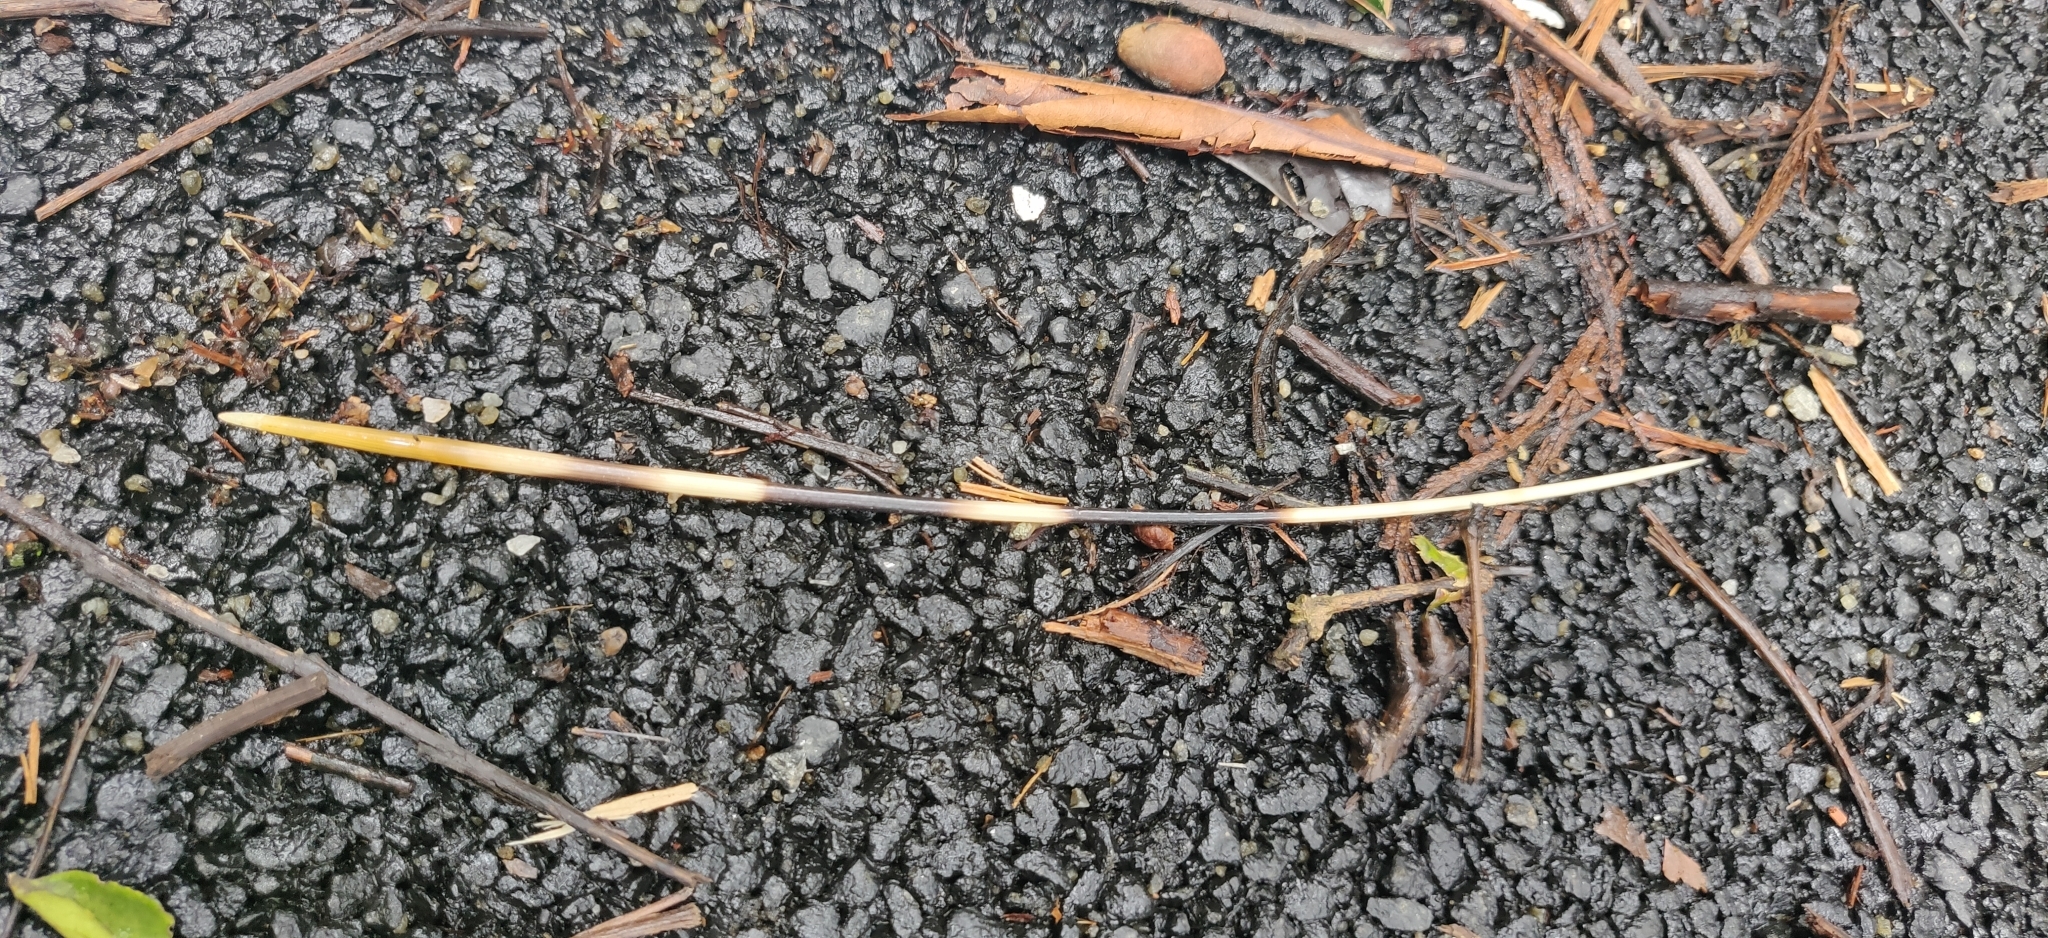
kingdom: Animalia
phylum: Chordata
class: Mammalia
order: Rodentia
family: Hystricidae
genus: Hystrix
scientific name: Hystrix indica
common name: Indian crested porcupine
